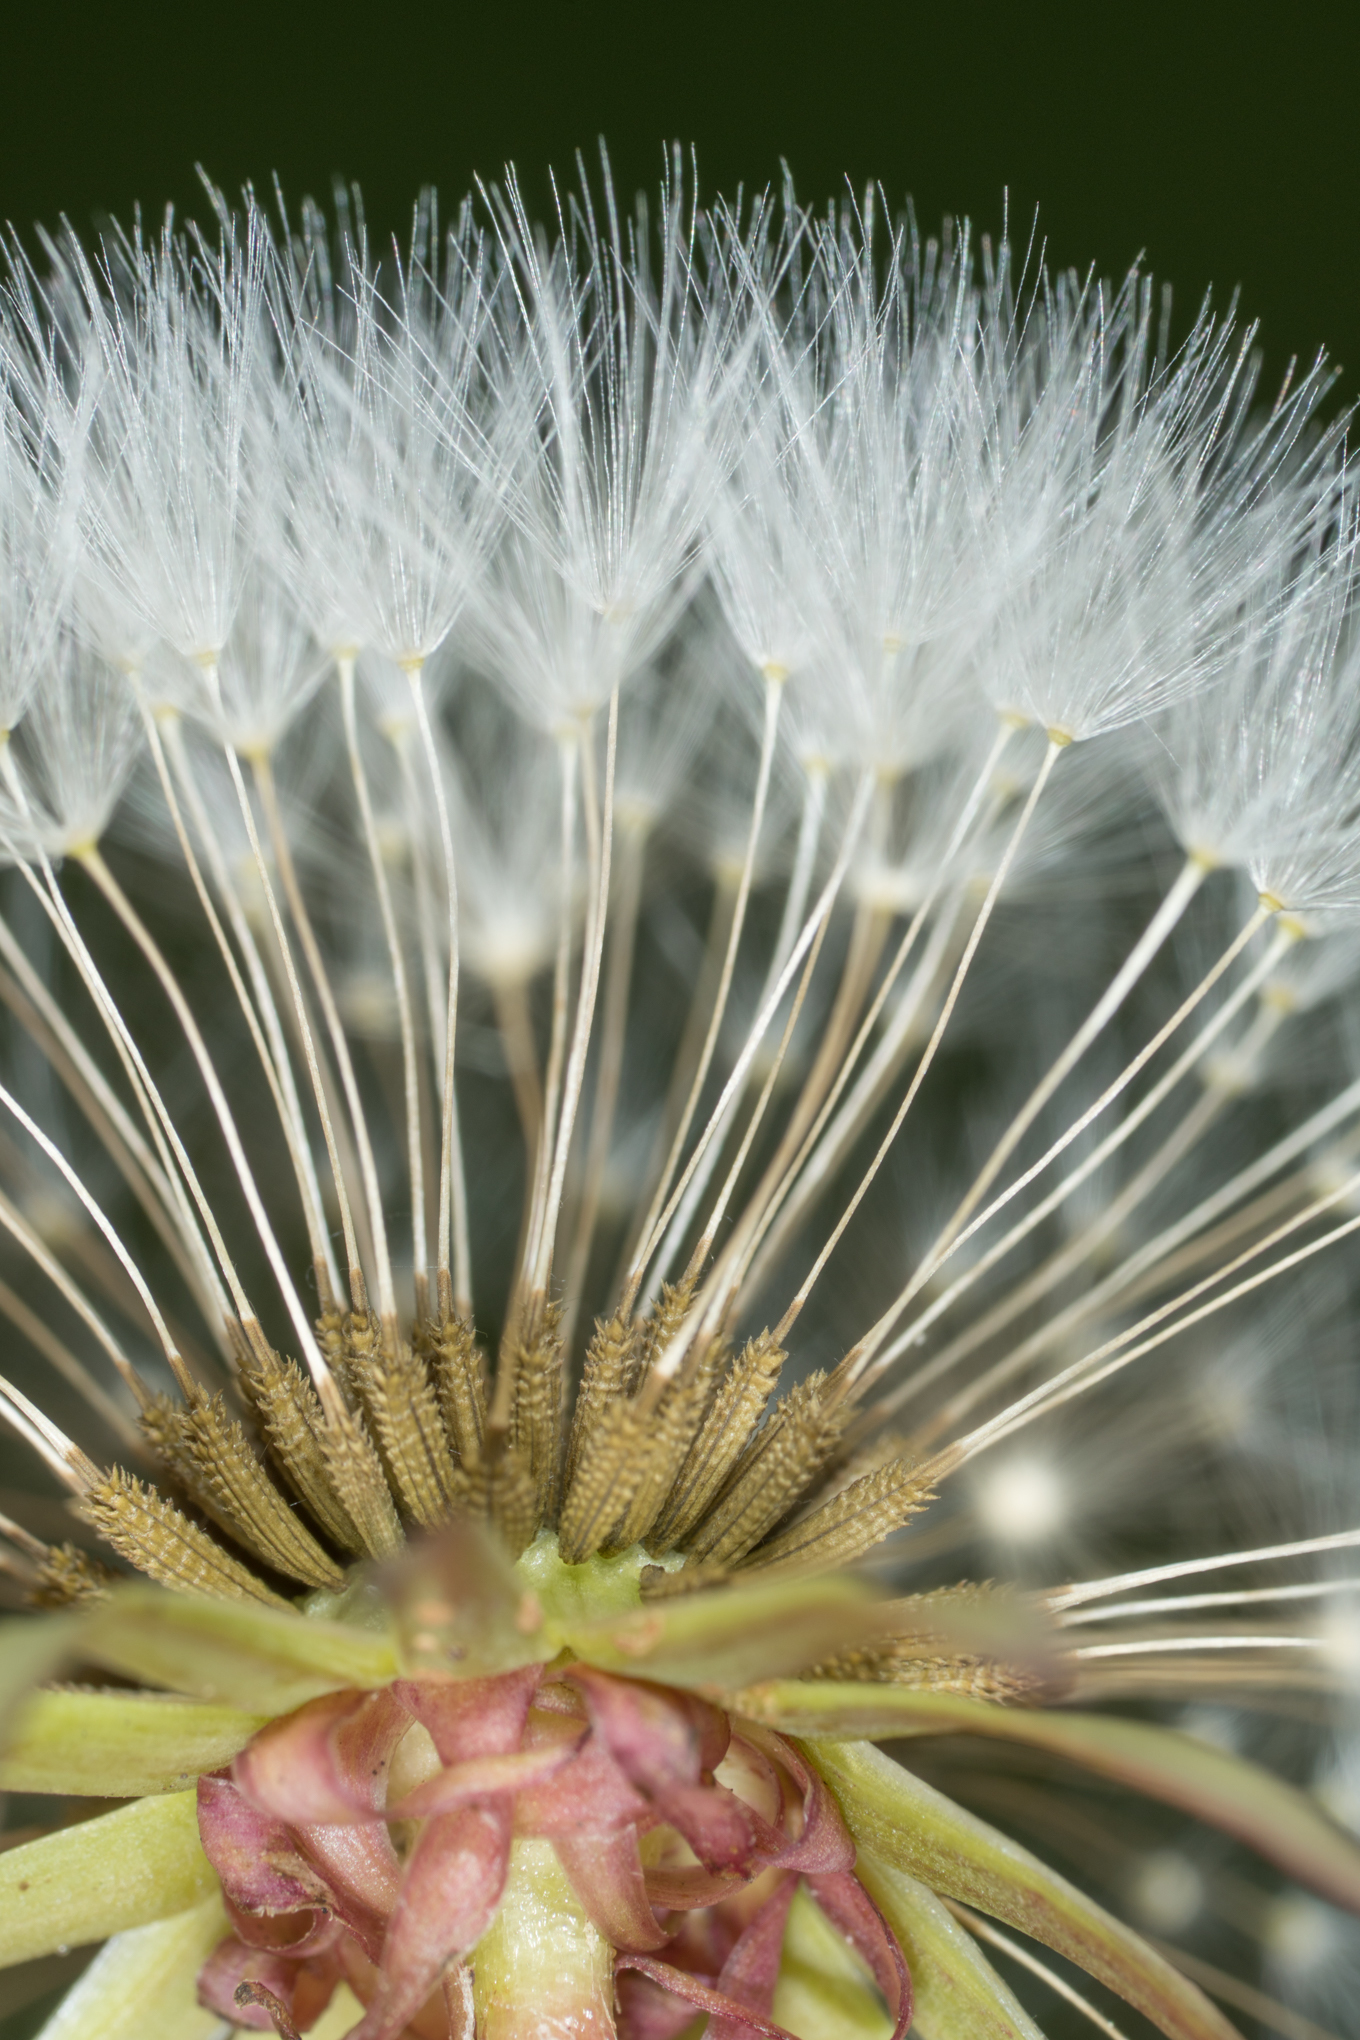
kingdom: Plantae
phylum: Tracheophyta
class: Magnoliopsida
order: Asterales
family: Asteraceae
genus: Taraxacum
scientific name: Taraxacum officinale
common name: Common dandelion
